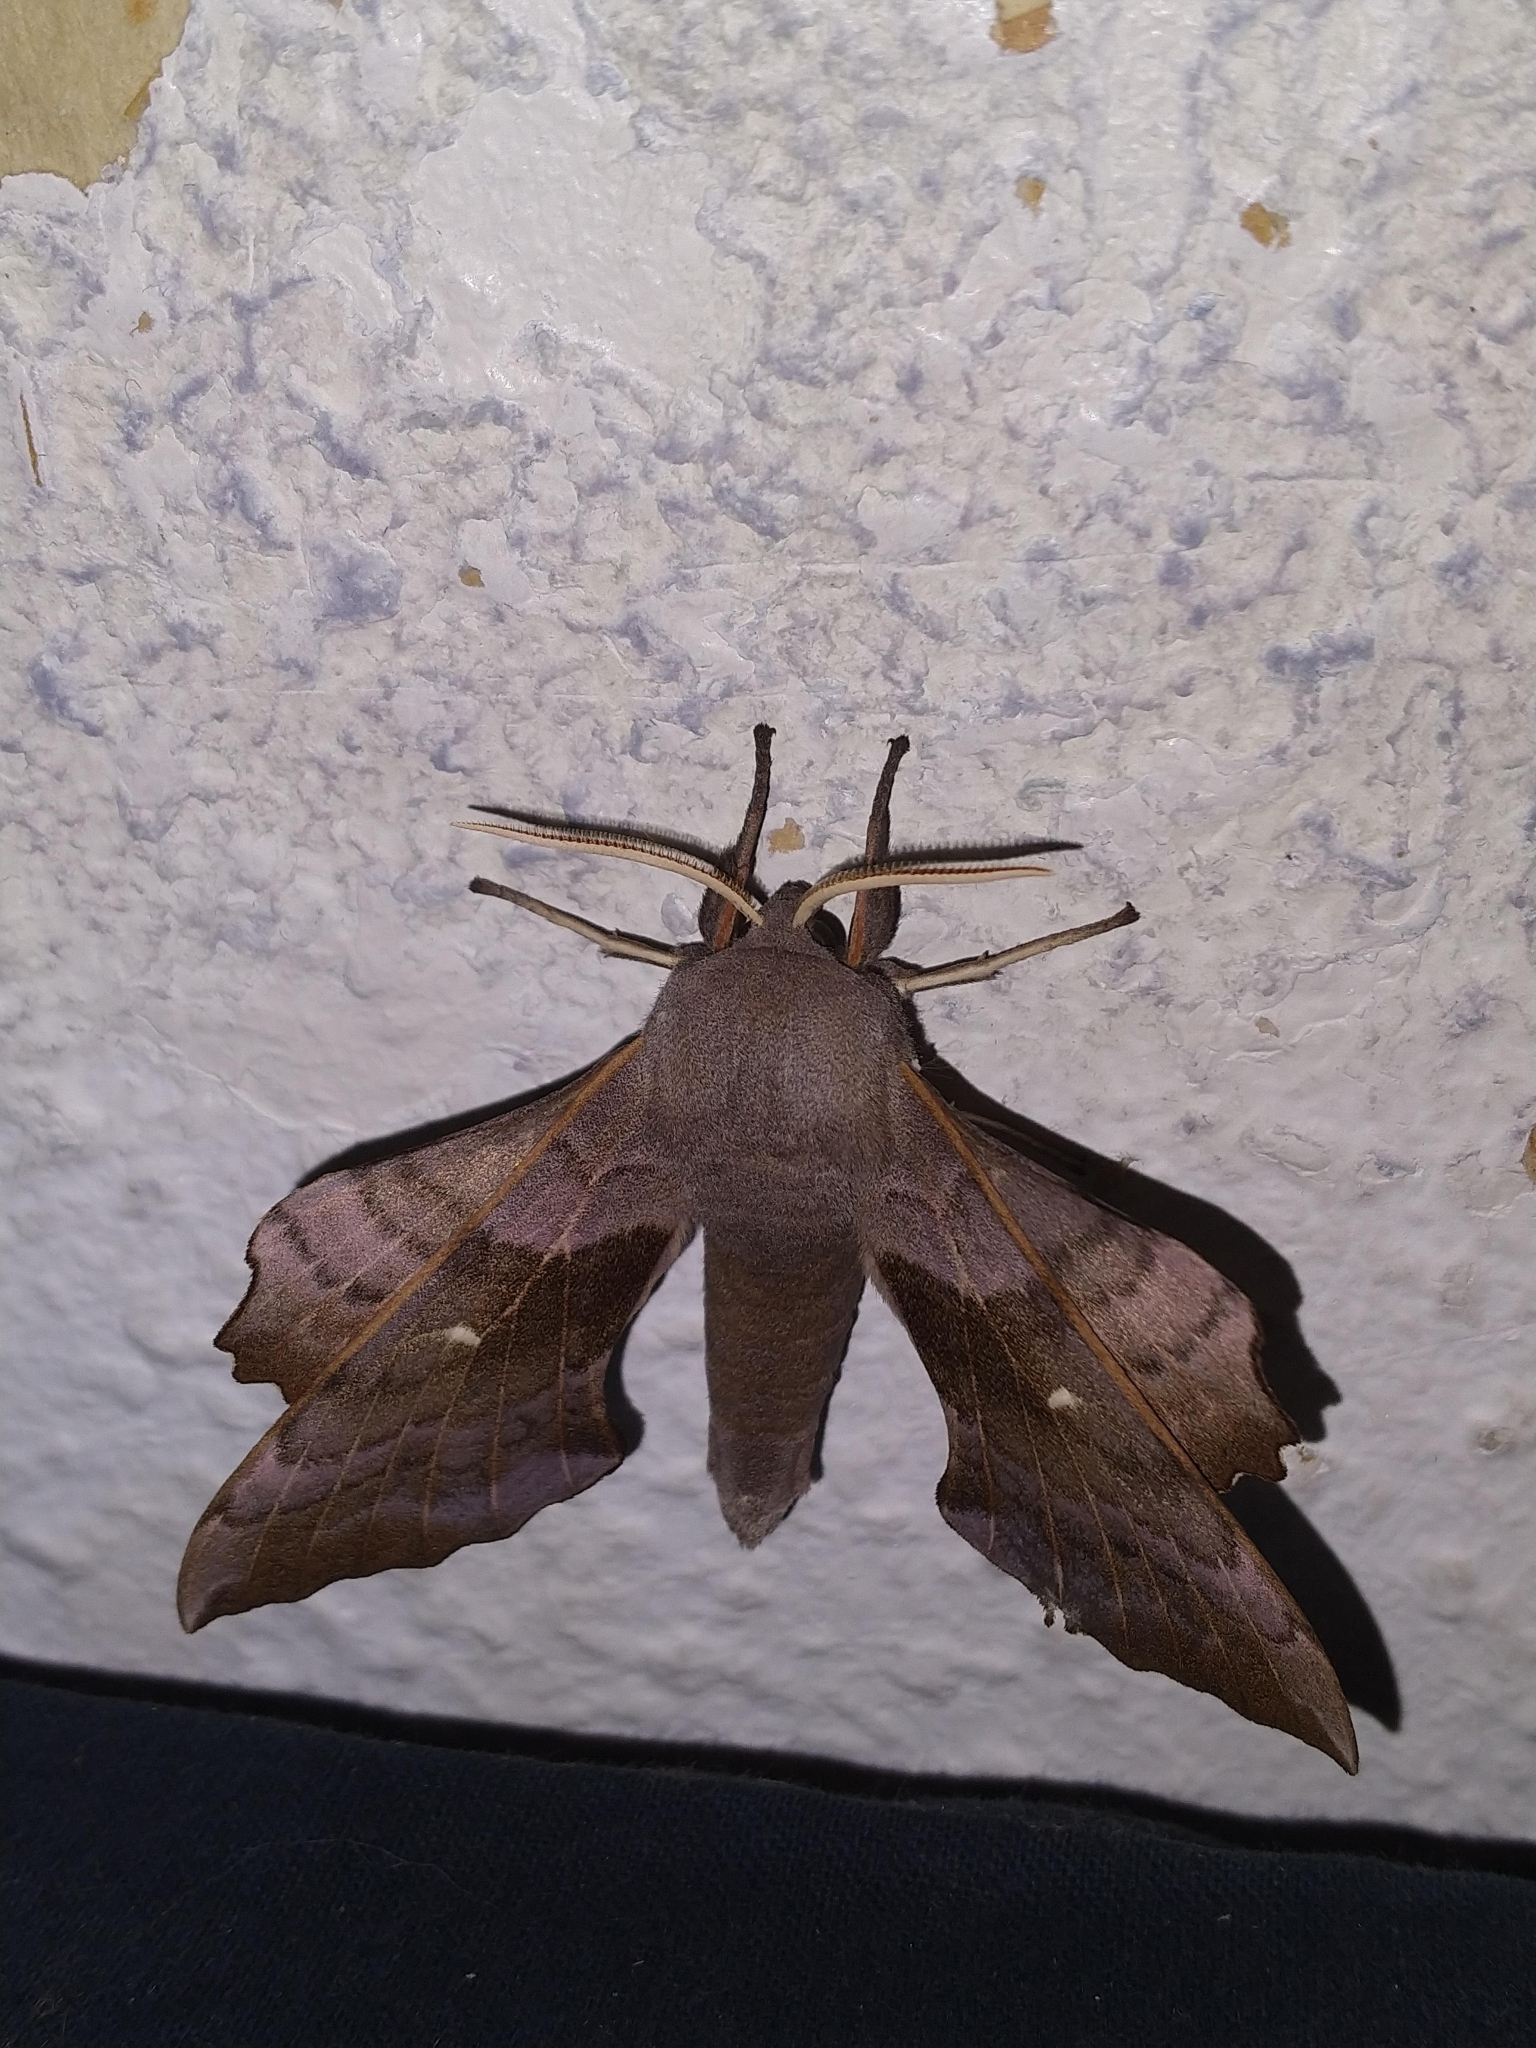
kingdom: Animalia
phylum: Arthropoda
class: Insecta
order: Lepidoptera
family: Sphingidae
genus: Laothoe
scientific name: Laothoe populi
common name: Poplar hawk-moth
